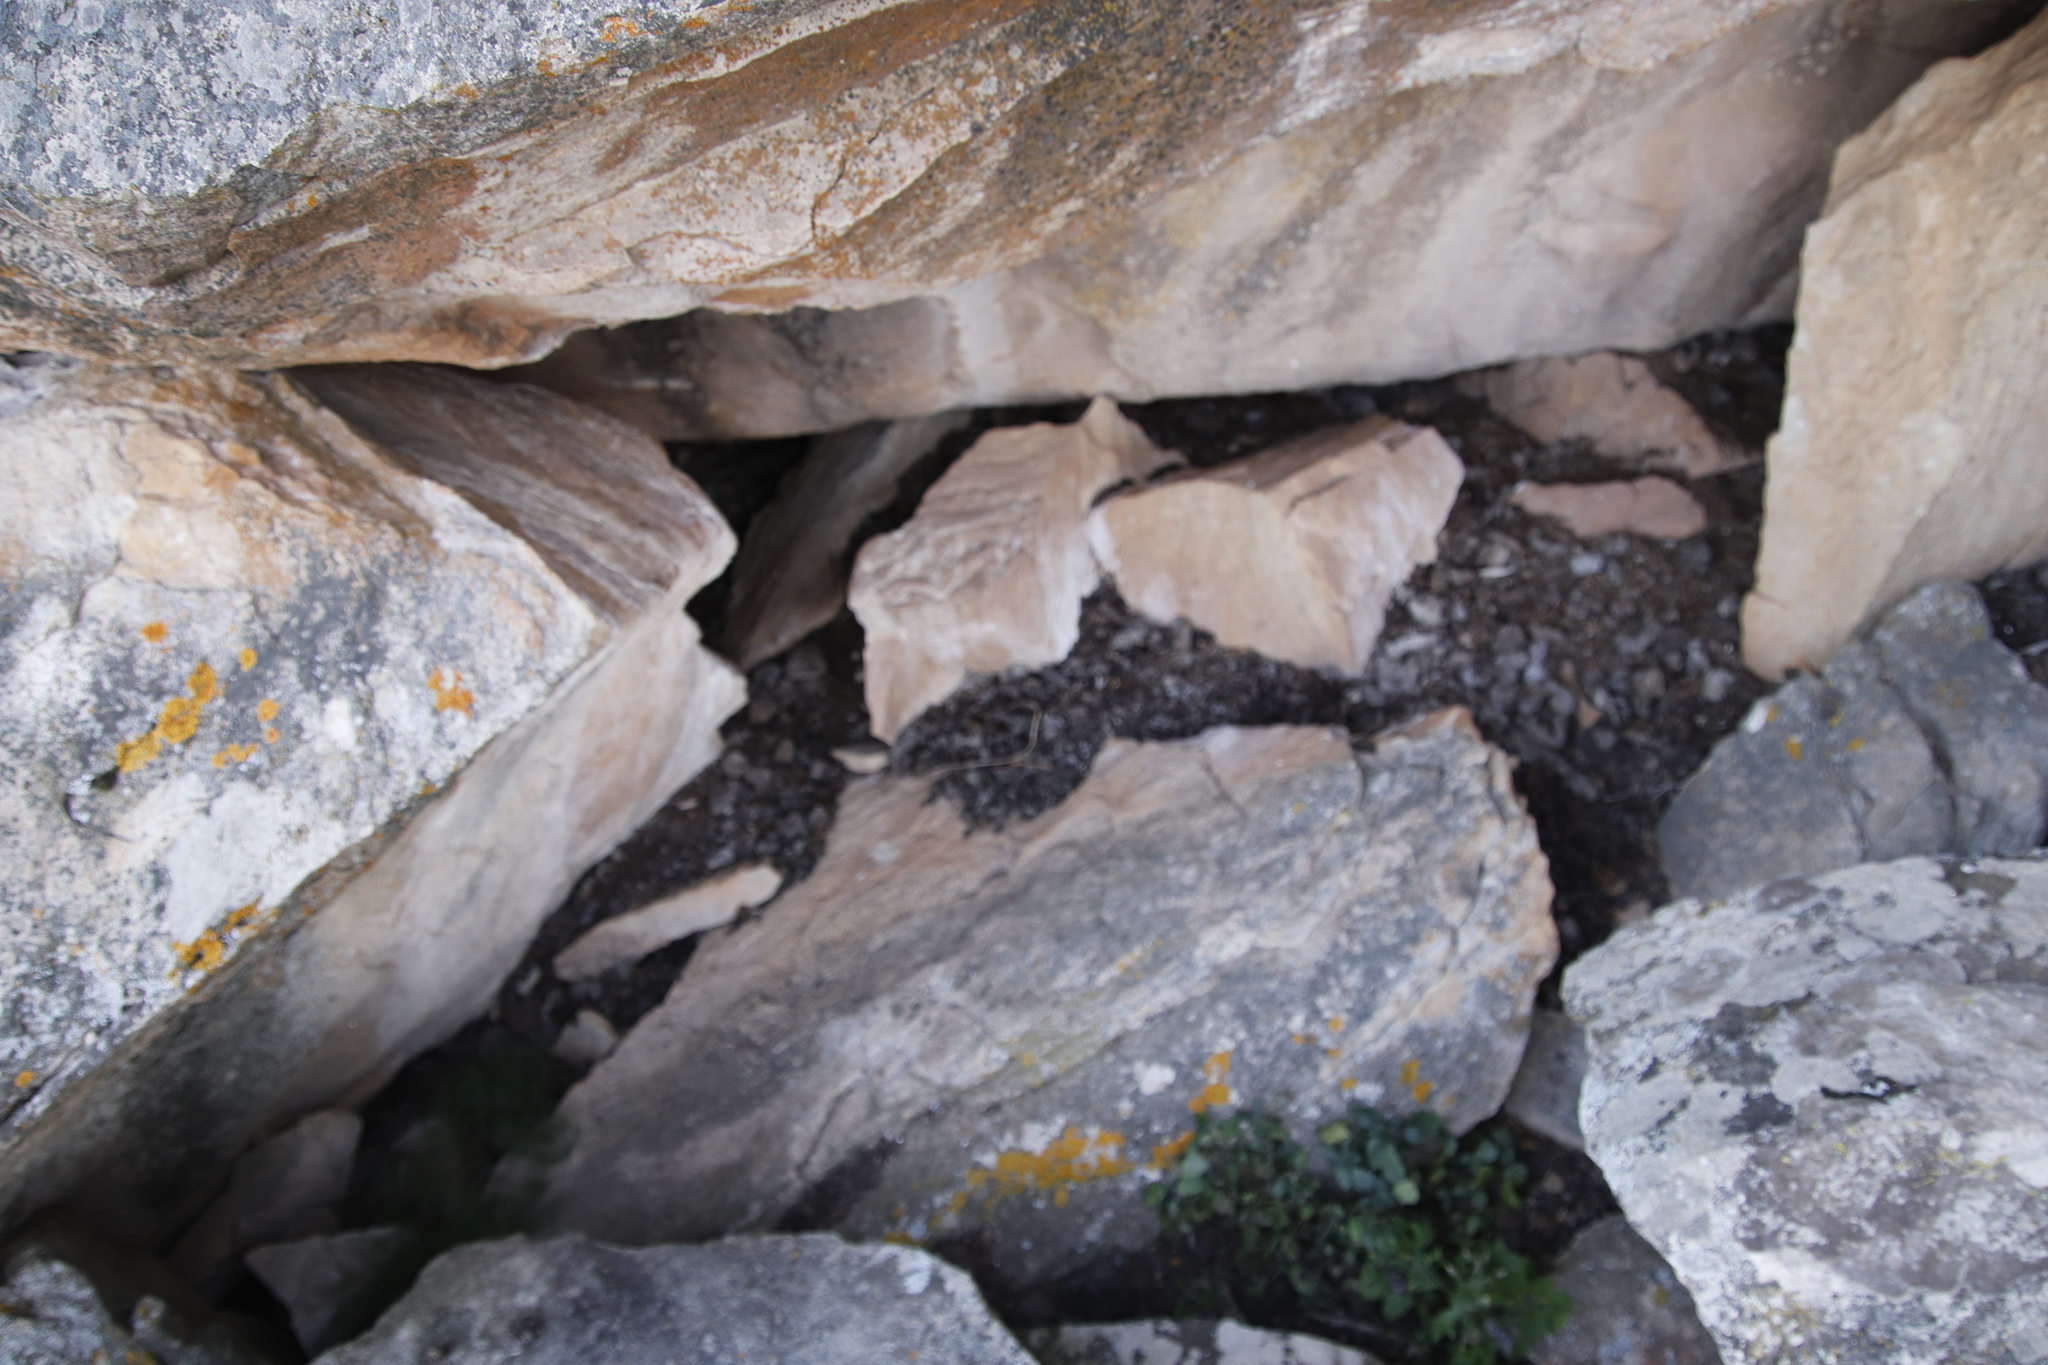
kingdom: Animalia
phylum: Chordata
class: Mammalia
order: Hyracoidea
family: Procaviidae
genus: Procavia
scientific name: Procavia capensis
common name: Rock hyrax
